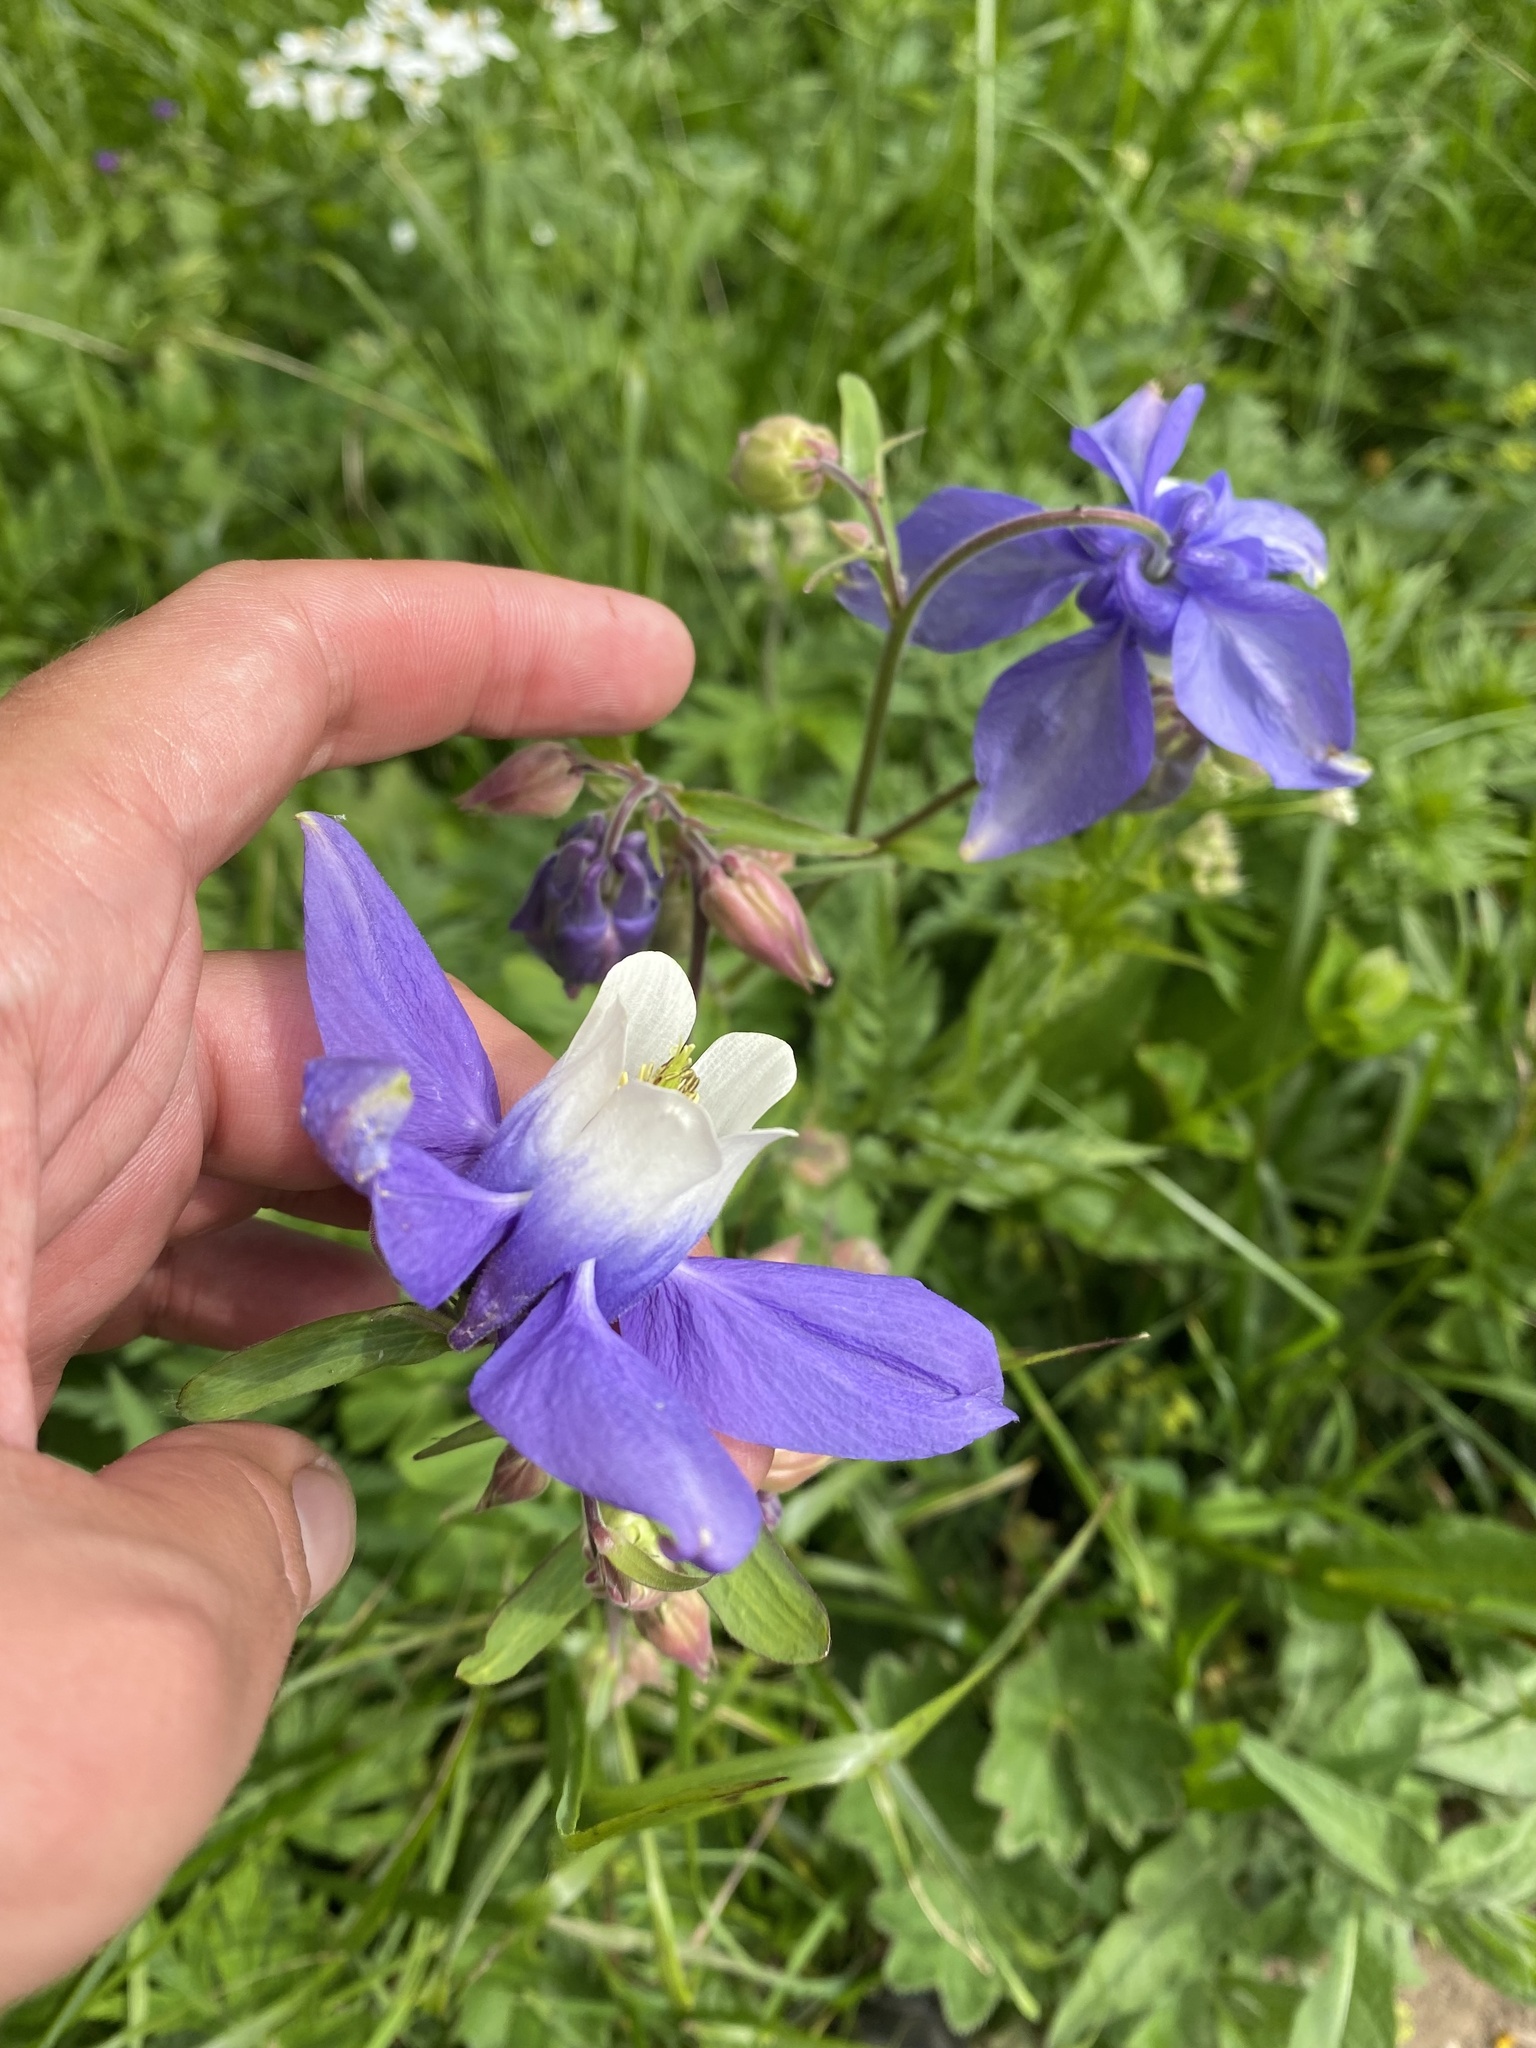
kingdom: Plantae
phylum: Tracheophyta
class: Magnoliopsida
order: Ranunculales
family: Ranunculaceae
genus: Aquilegia
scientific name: Aquilegia olympica
